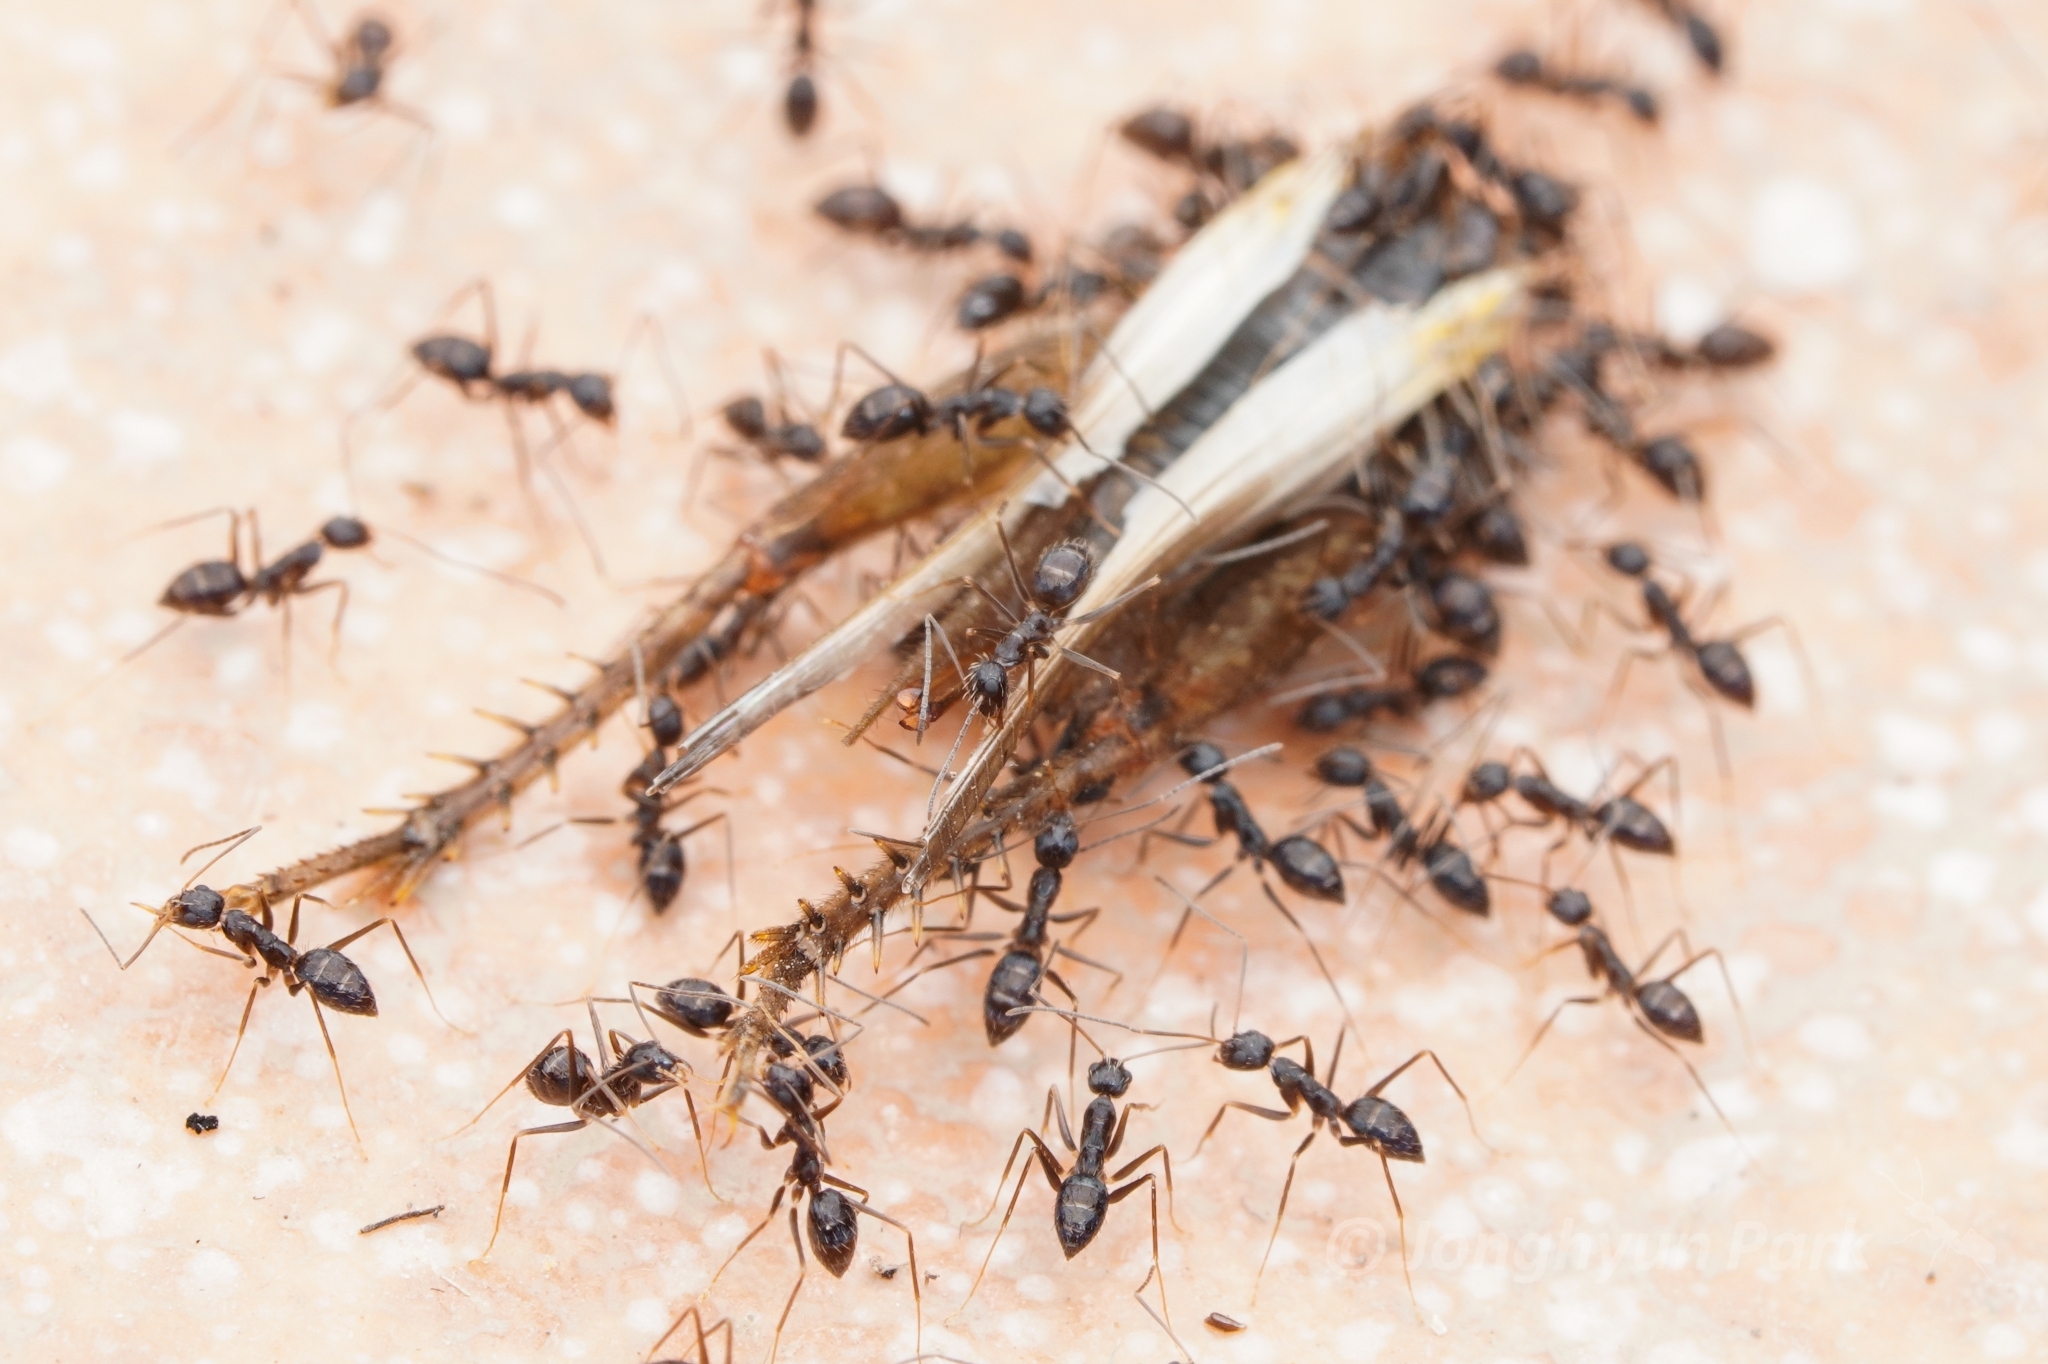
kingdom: Animalia
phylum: Arthropoda
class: Insecta
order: Hymenoptera
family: Formicidae
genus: Paratrechina
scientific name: Paratrechina longicornis
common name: Longhorned crazy ant
